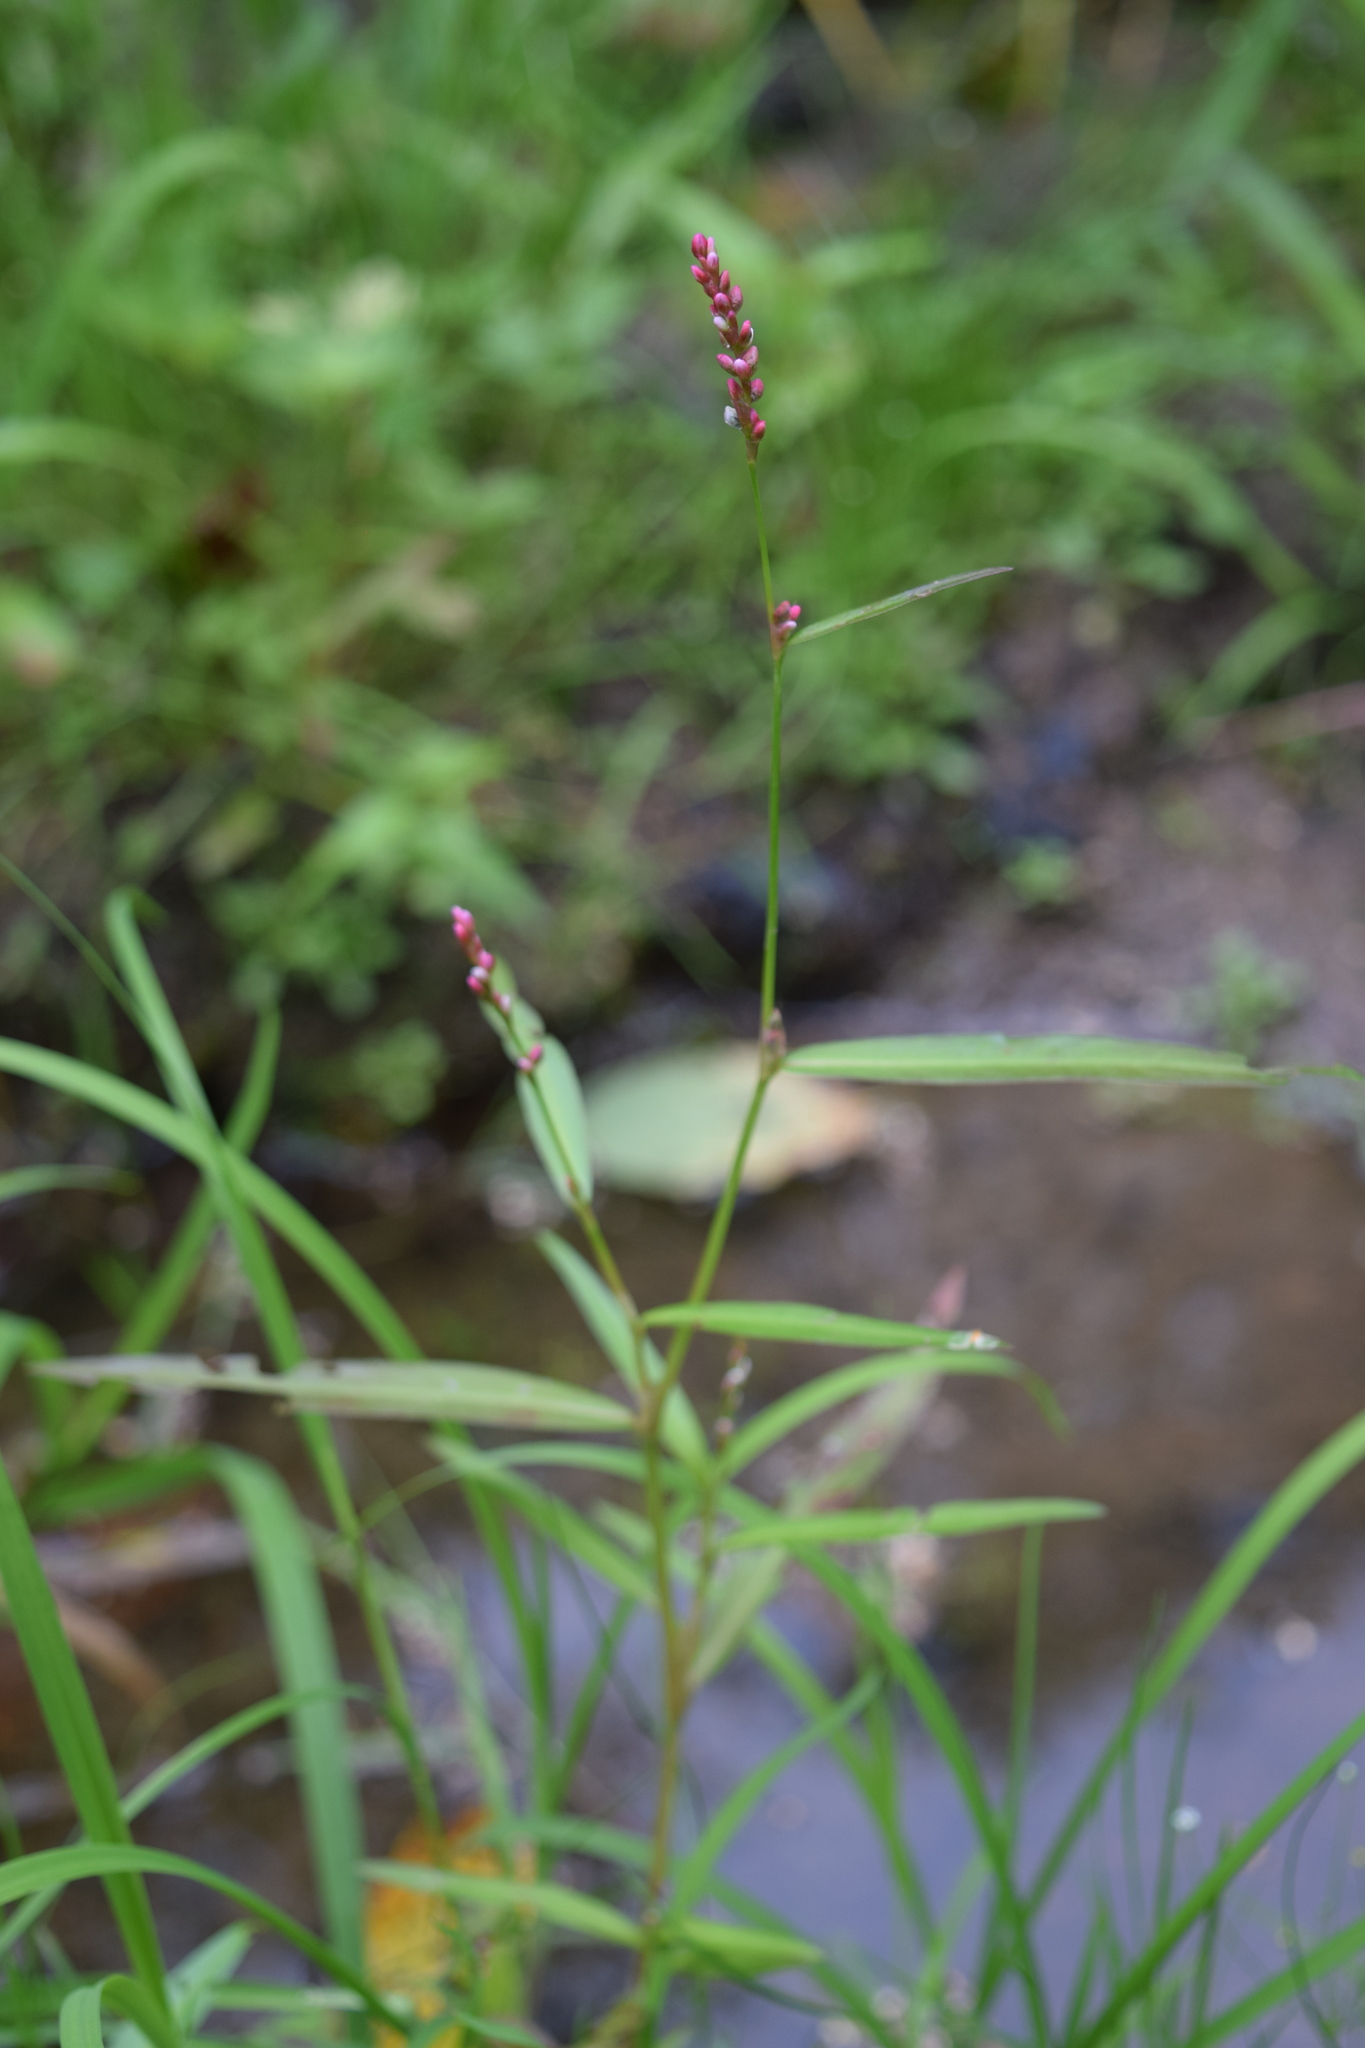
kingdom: Plantae
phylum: Tracheophyta
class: Magnoliopsida
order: Caryophyllales
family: Polygonaceae
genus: Persicaria
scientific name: Persicaria minor
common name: Small water-pepper
